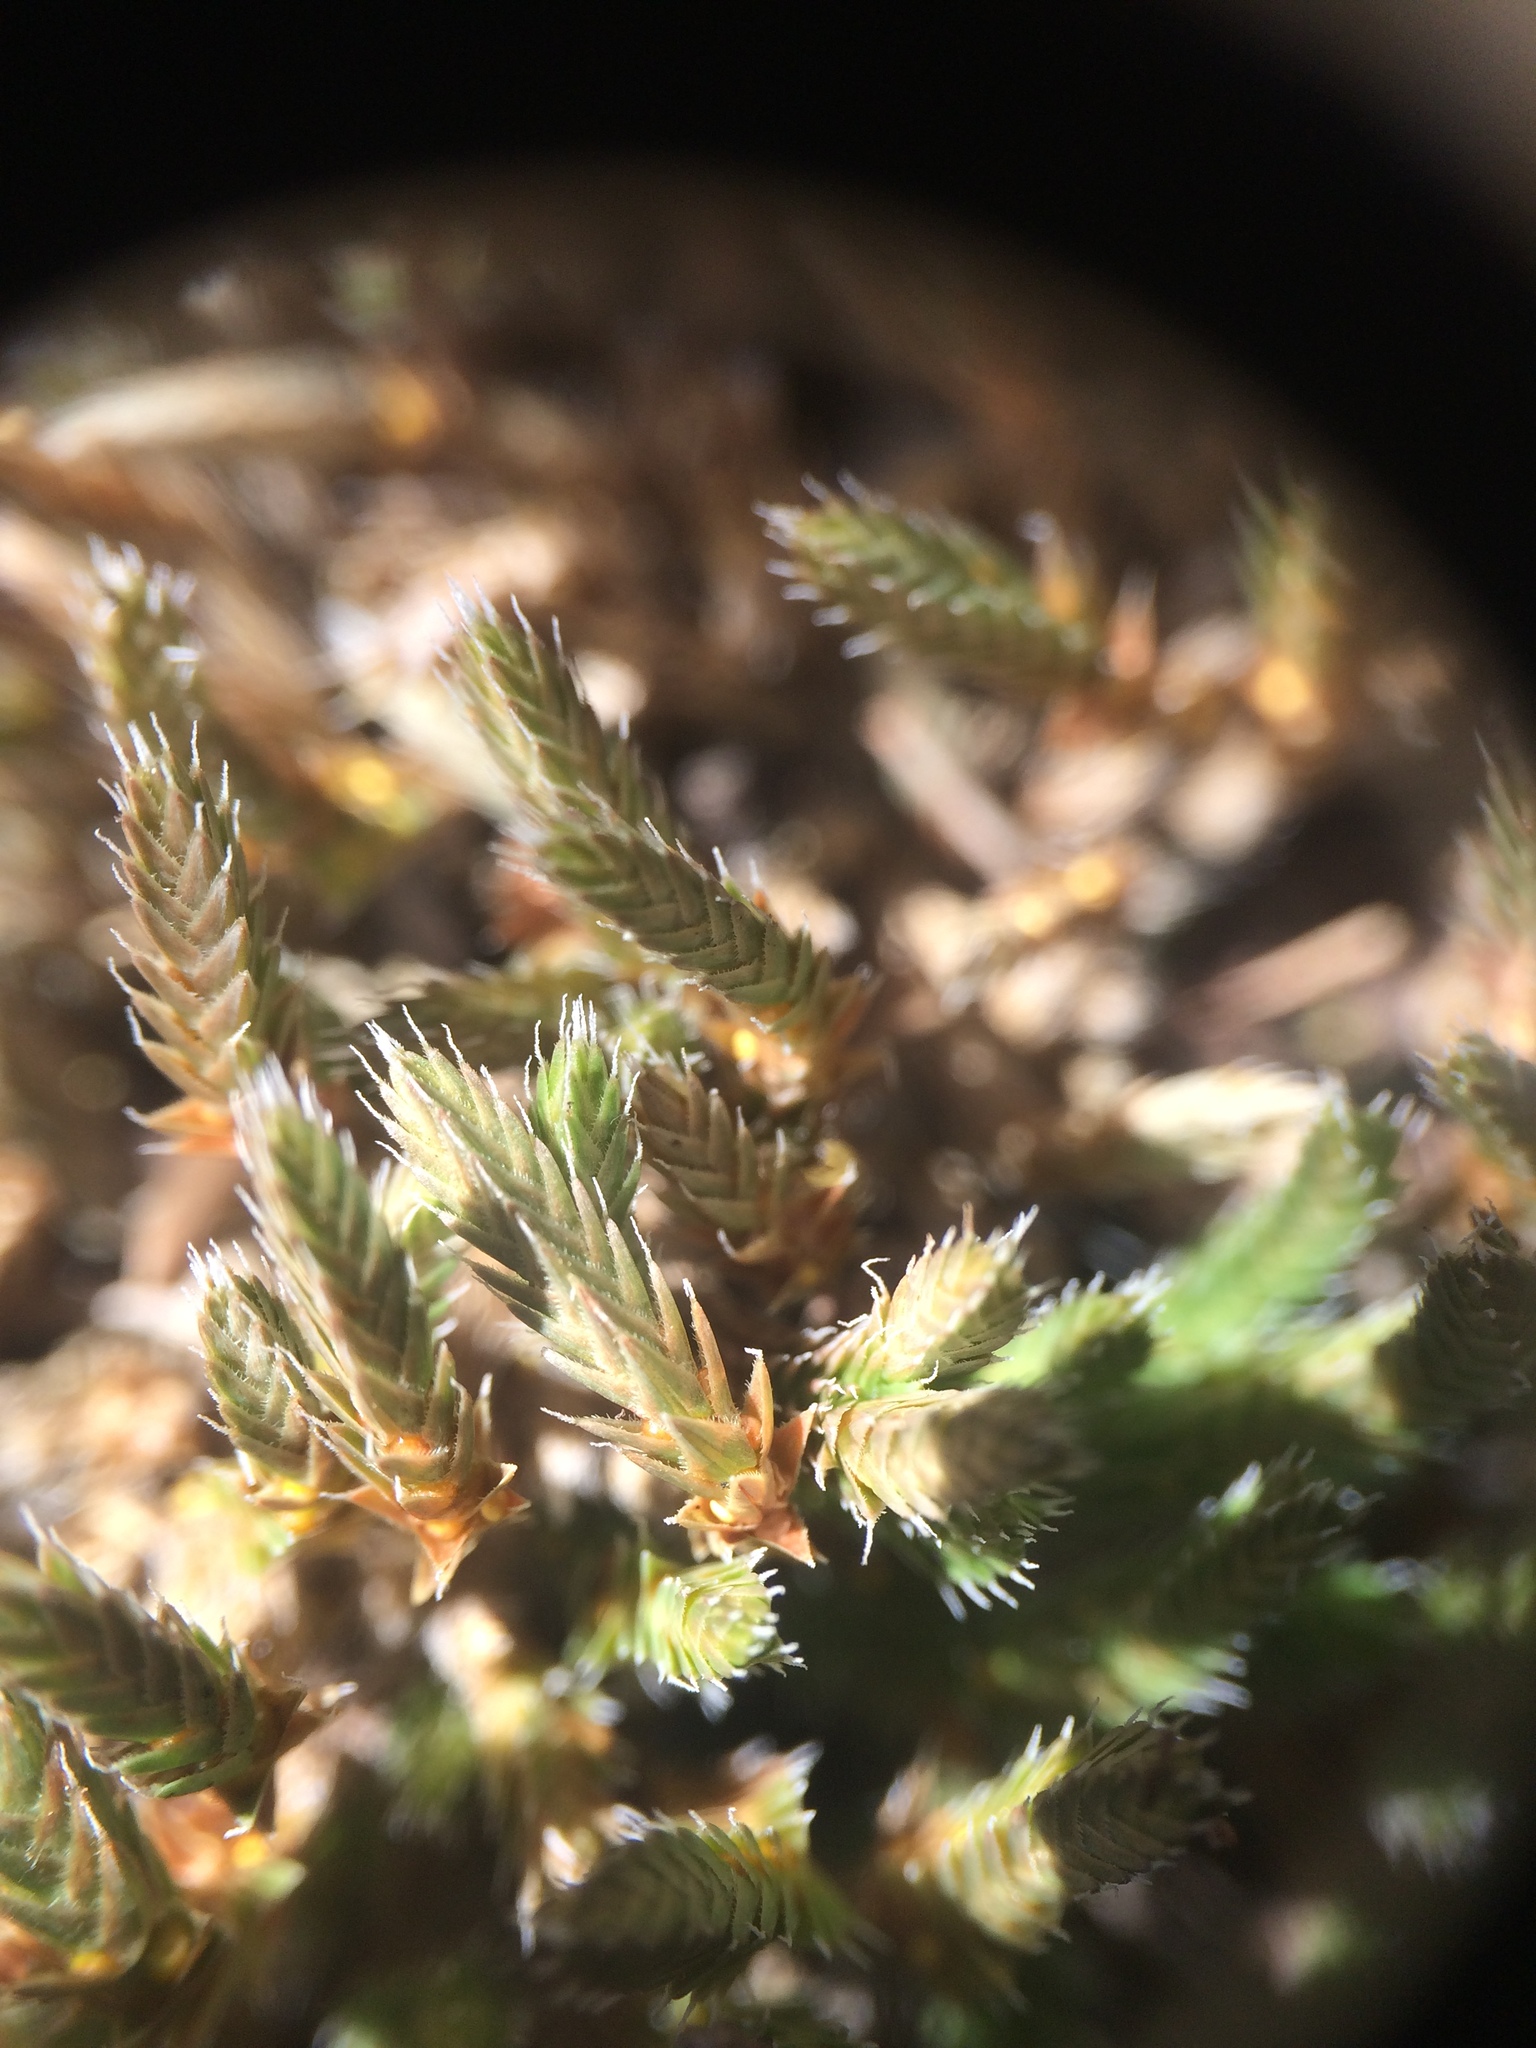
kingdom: Plantae
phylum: Tracheophyta
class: Lycopodiopsida
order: Selaginellales
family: Selaginellaceae
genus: Selaginella
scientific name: Selaginella rupestris
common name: Dwarf spikemoss
